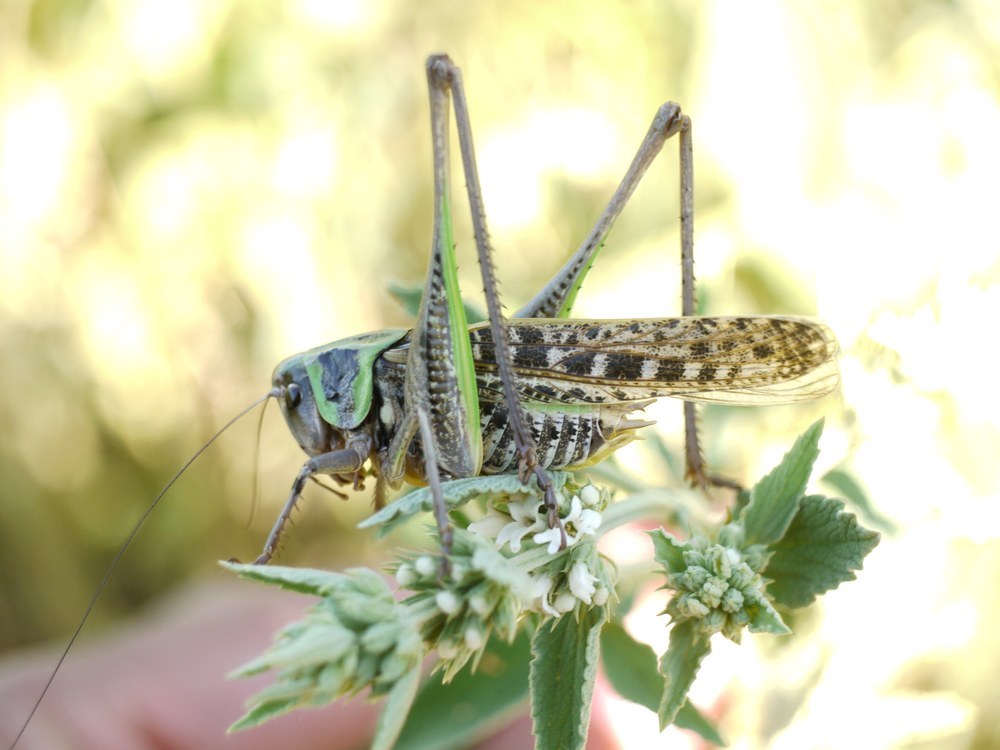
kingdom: Animalia
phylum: Arthropoda
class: Insecta
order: Orthoptera
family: Tettigoniidae
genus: Decticus
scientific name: Decticus verrucivorus
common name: Wart-biter
